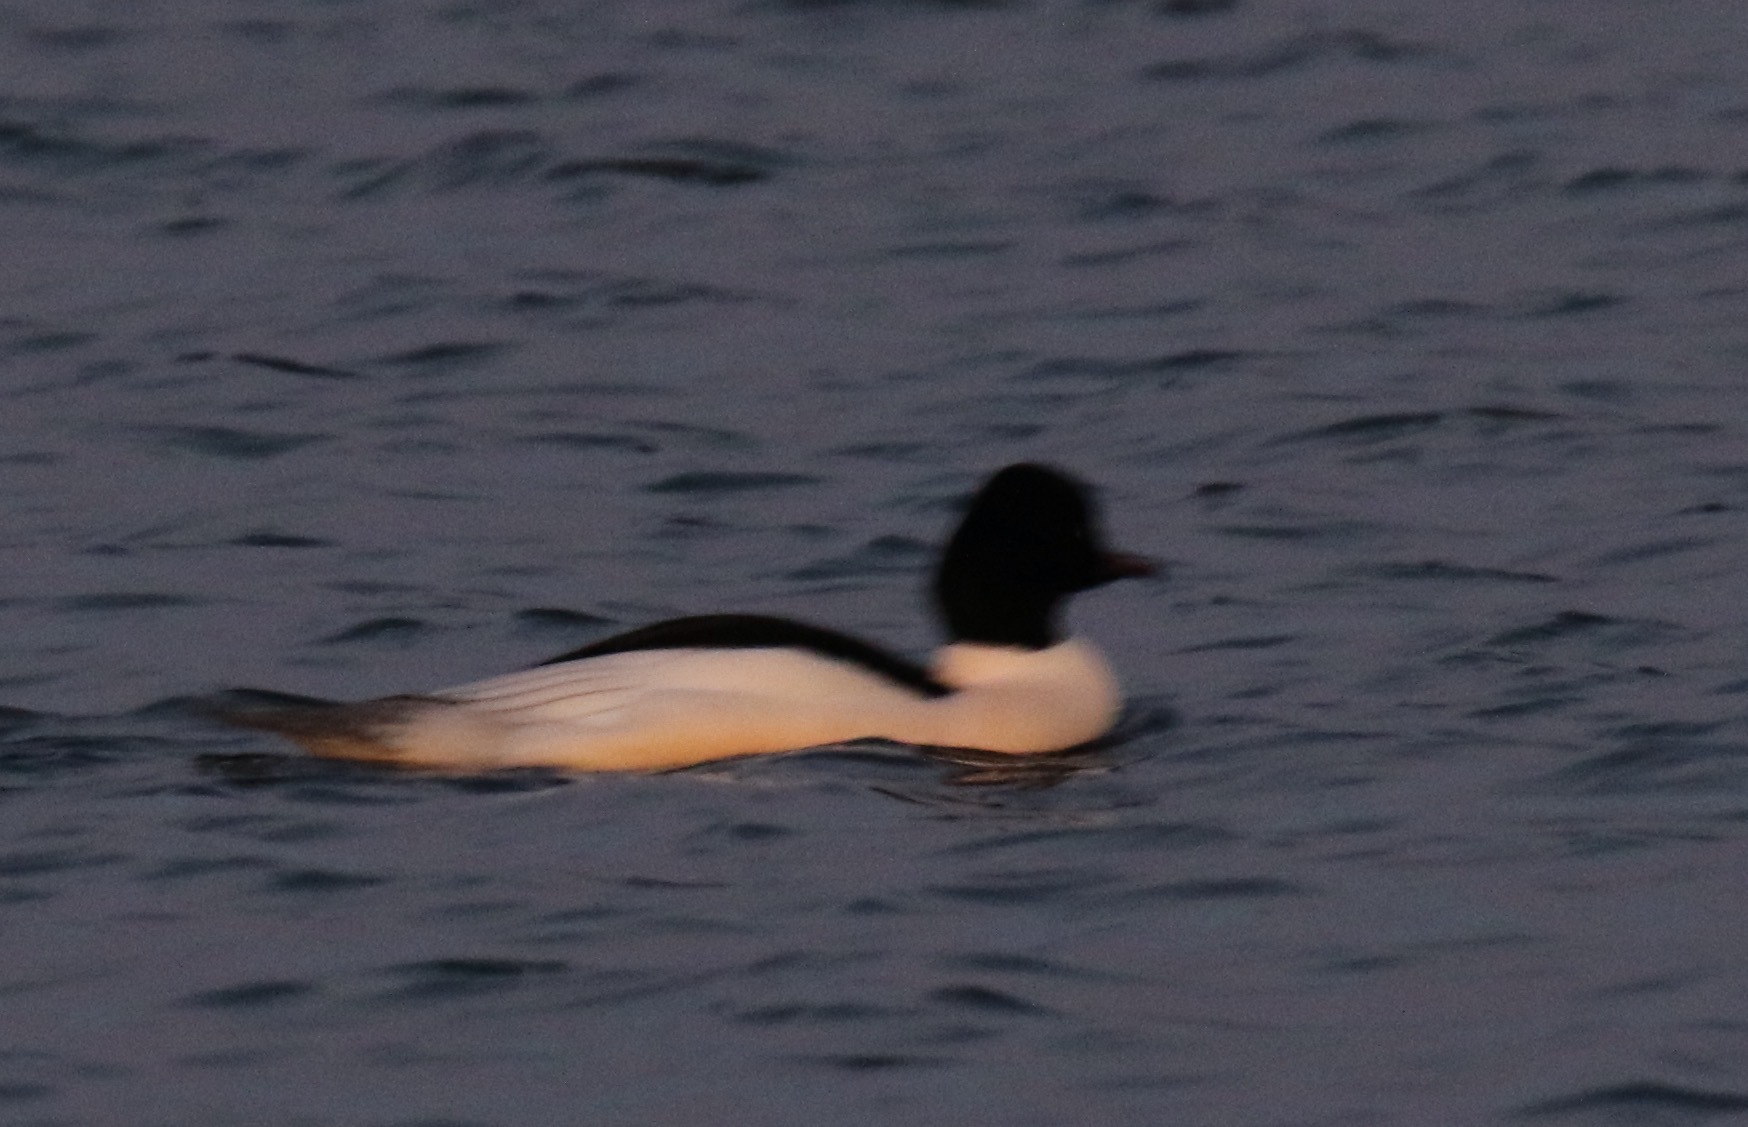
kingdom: Animalia
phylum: Chordata
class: Aves
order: Anseriformes
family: Anatidae
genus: Mergus
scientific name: Mergus merganser
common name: Common merganser
